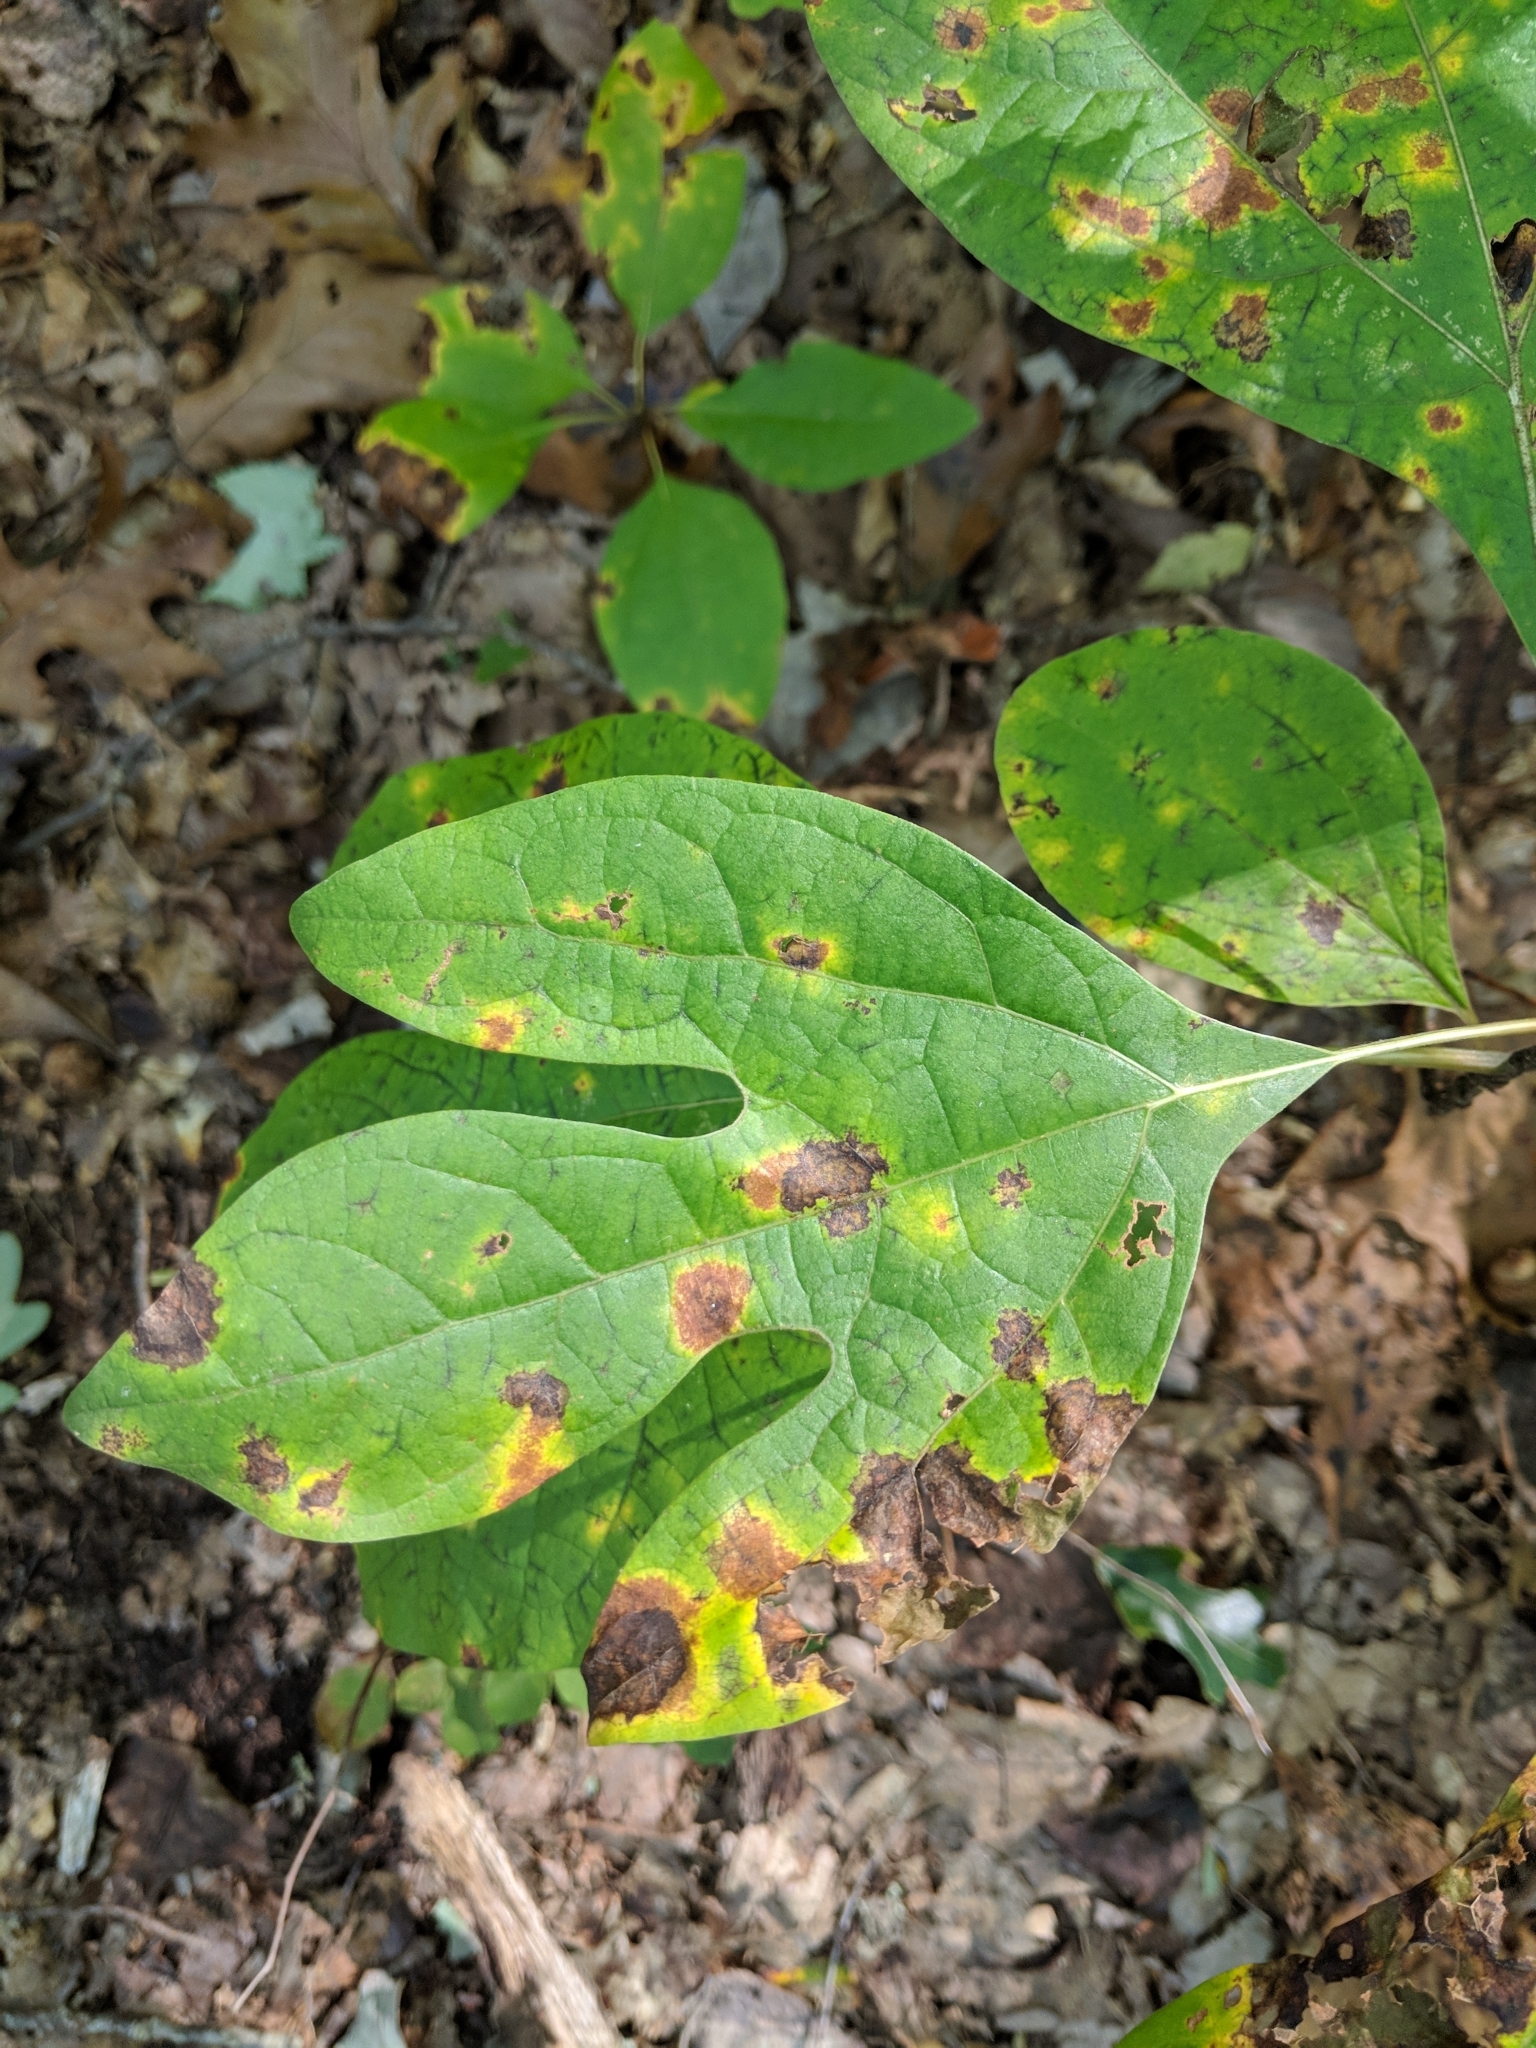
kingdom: Plantae
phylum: Tracheophyta
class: Magnoliopsida
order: Laurales
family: Lauraceae
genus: Sassafras
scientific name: Sassafras albidum
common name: Sassafras
